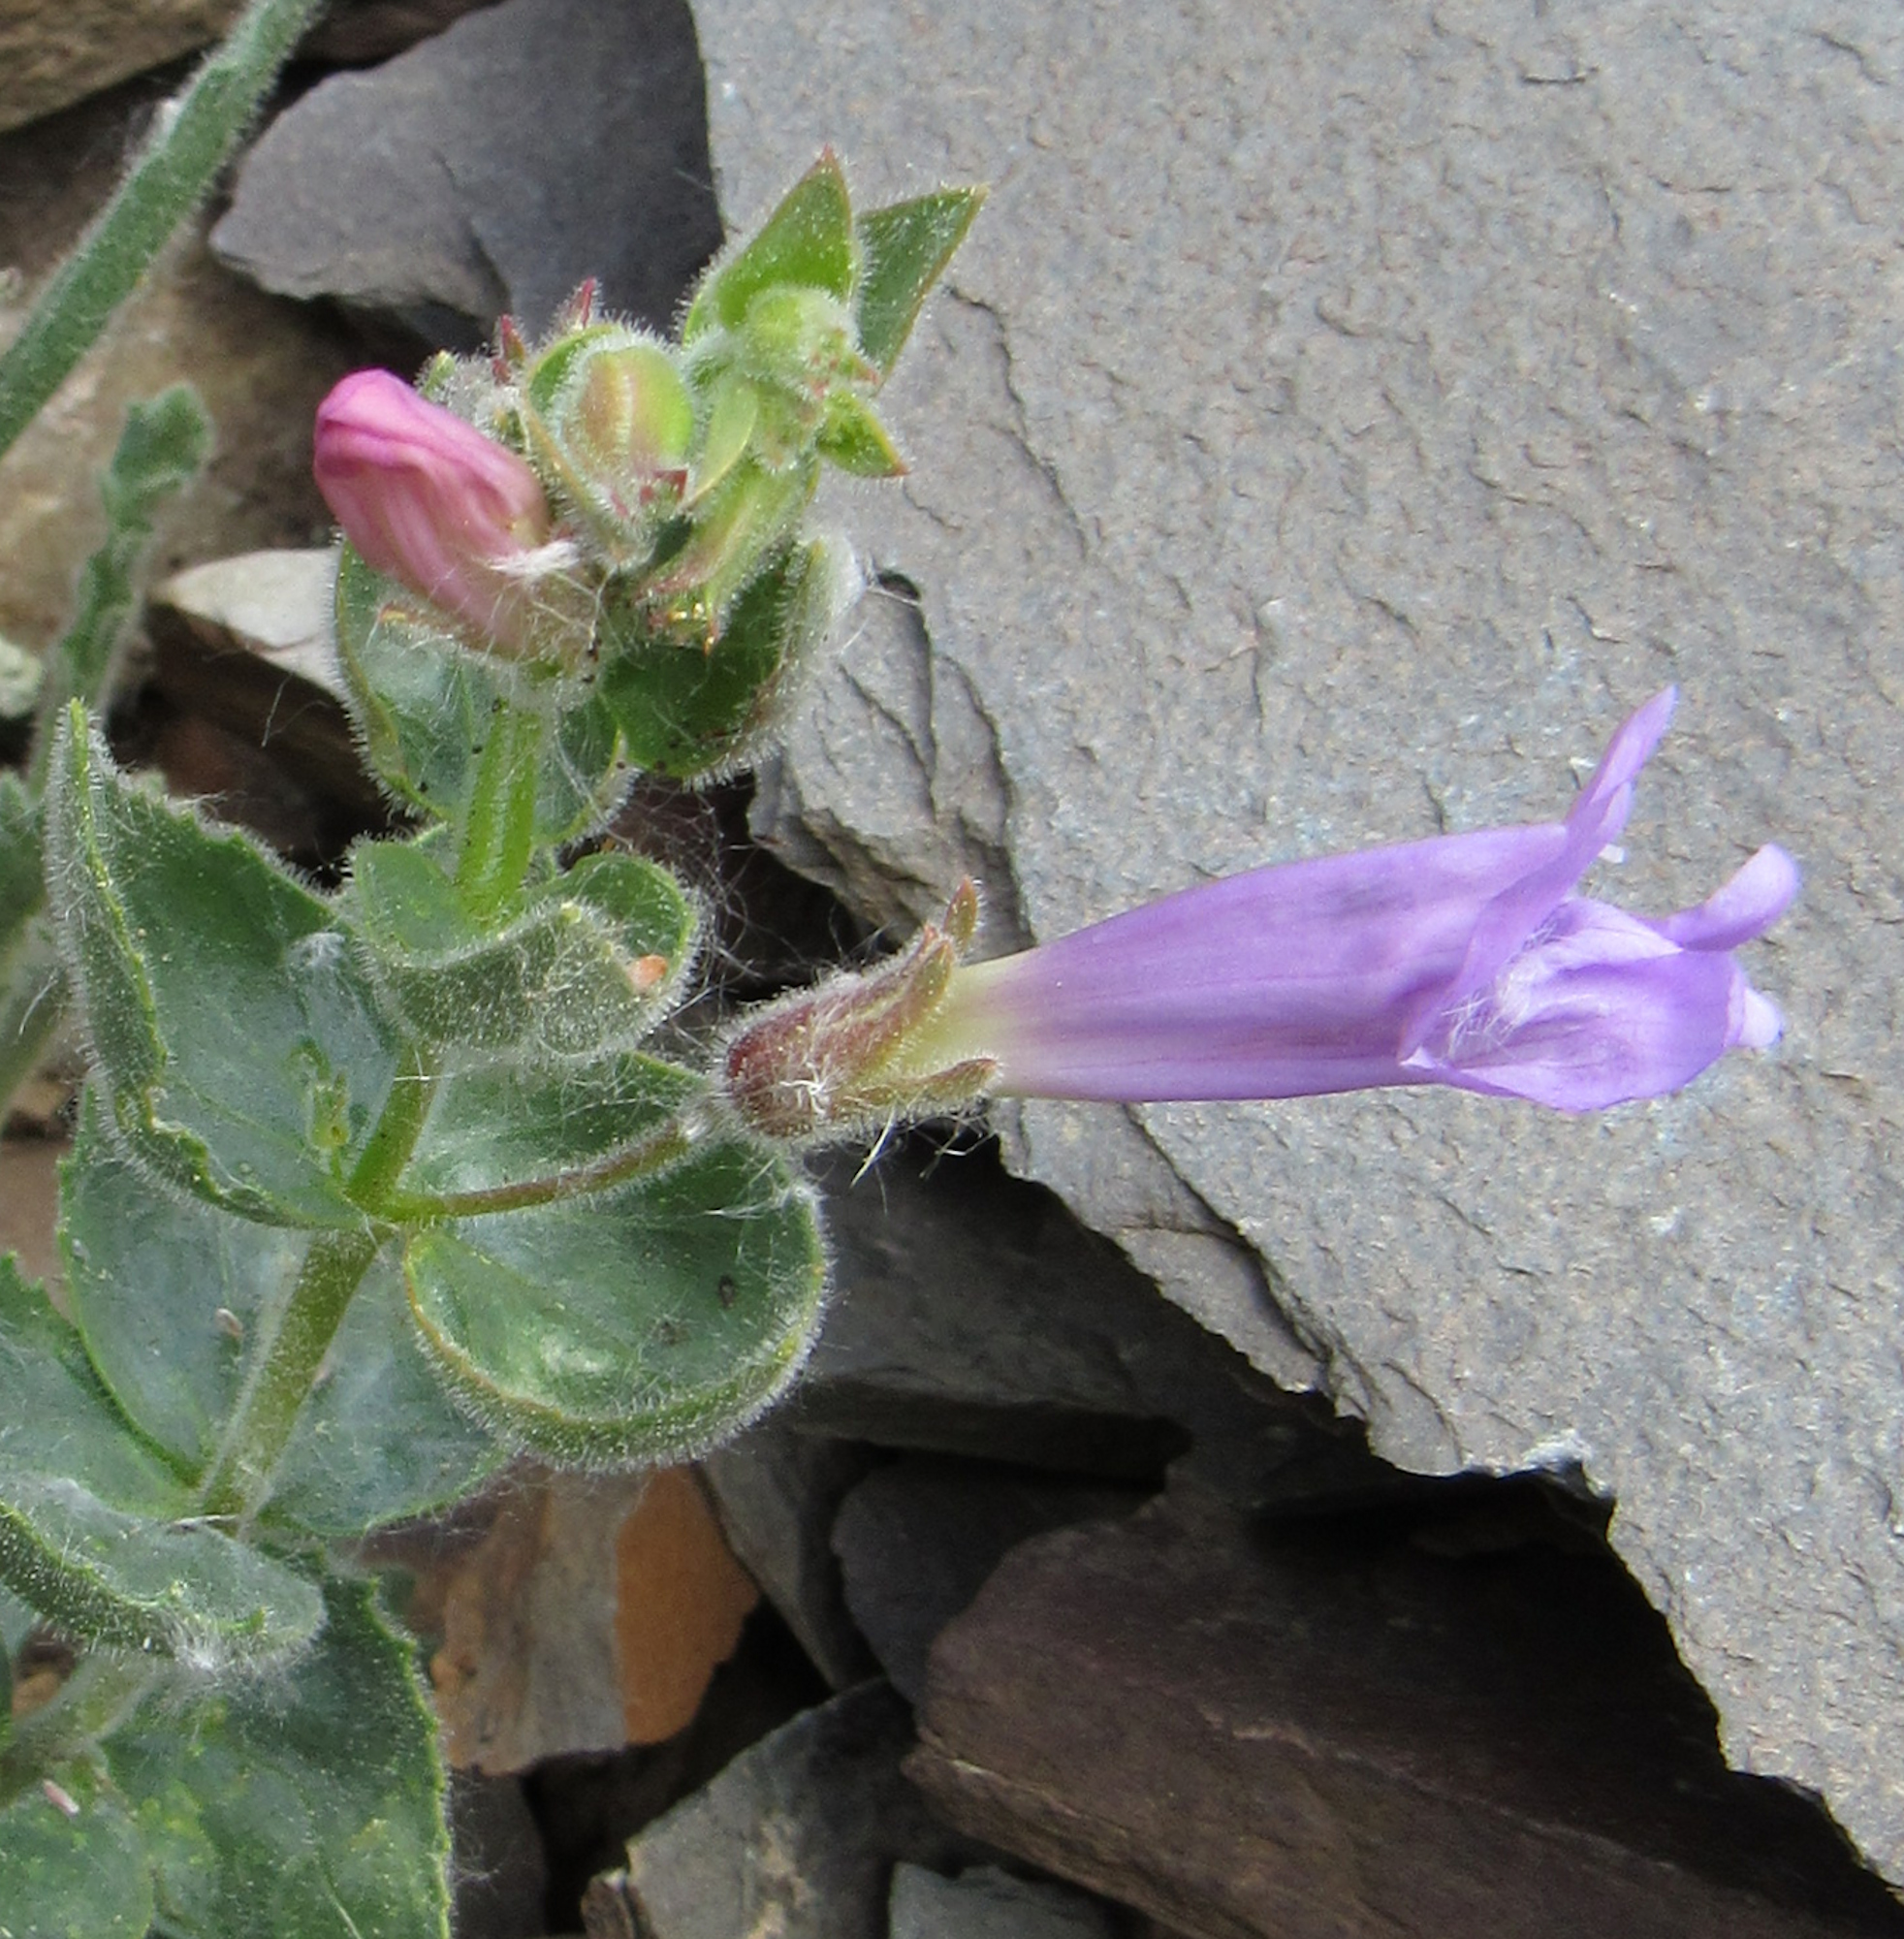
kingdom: Plantae
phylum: Tracheophyta
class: Magnoliopsida
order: Lamiales
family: Plantaginaceae
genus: Penstemon
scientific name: Penstemon montanus
